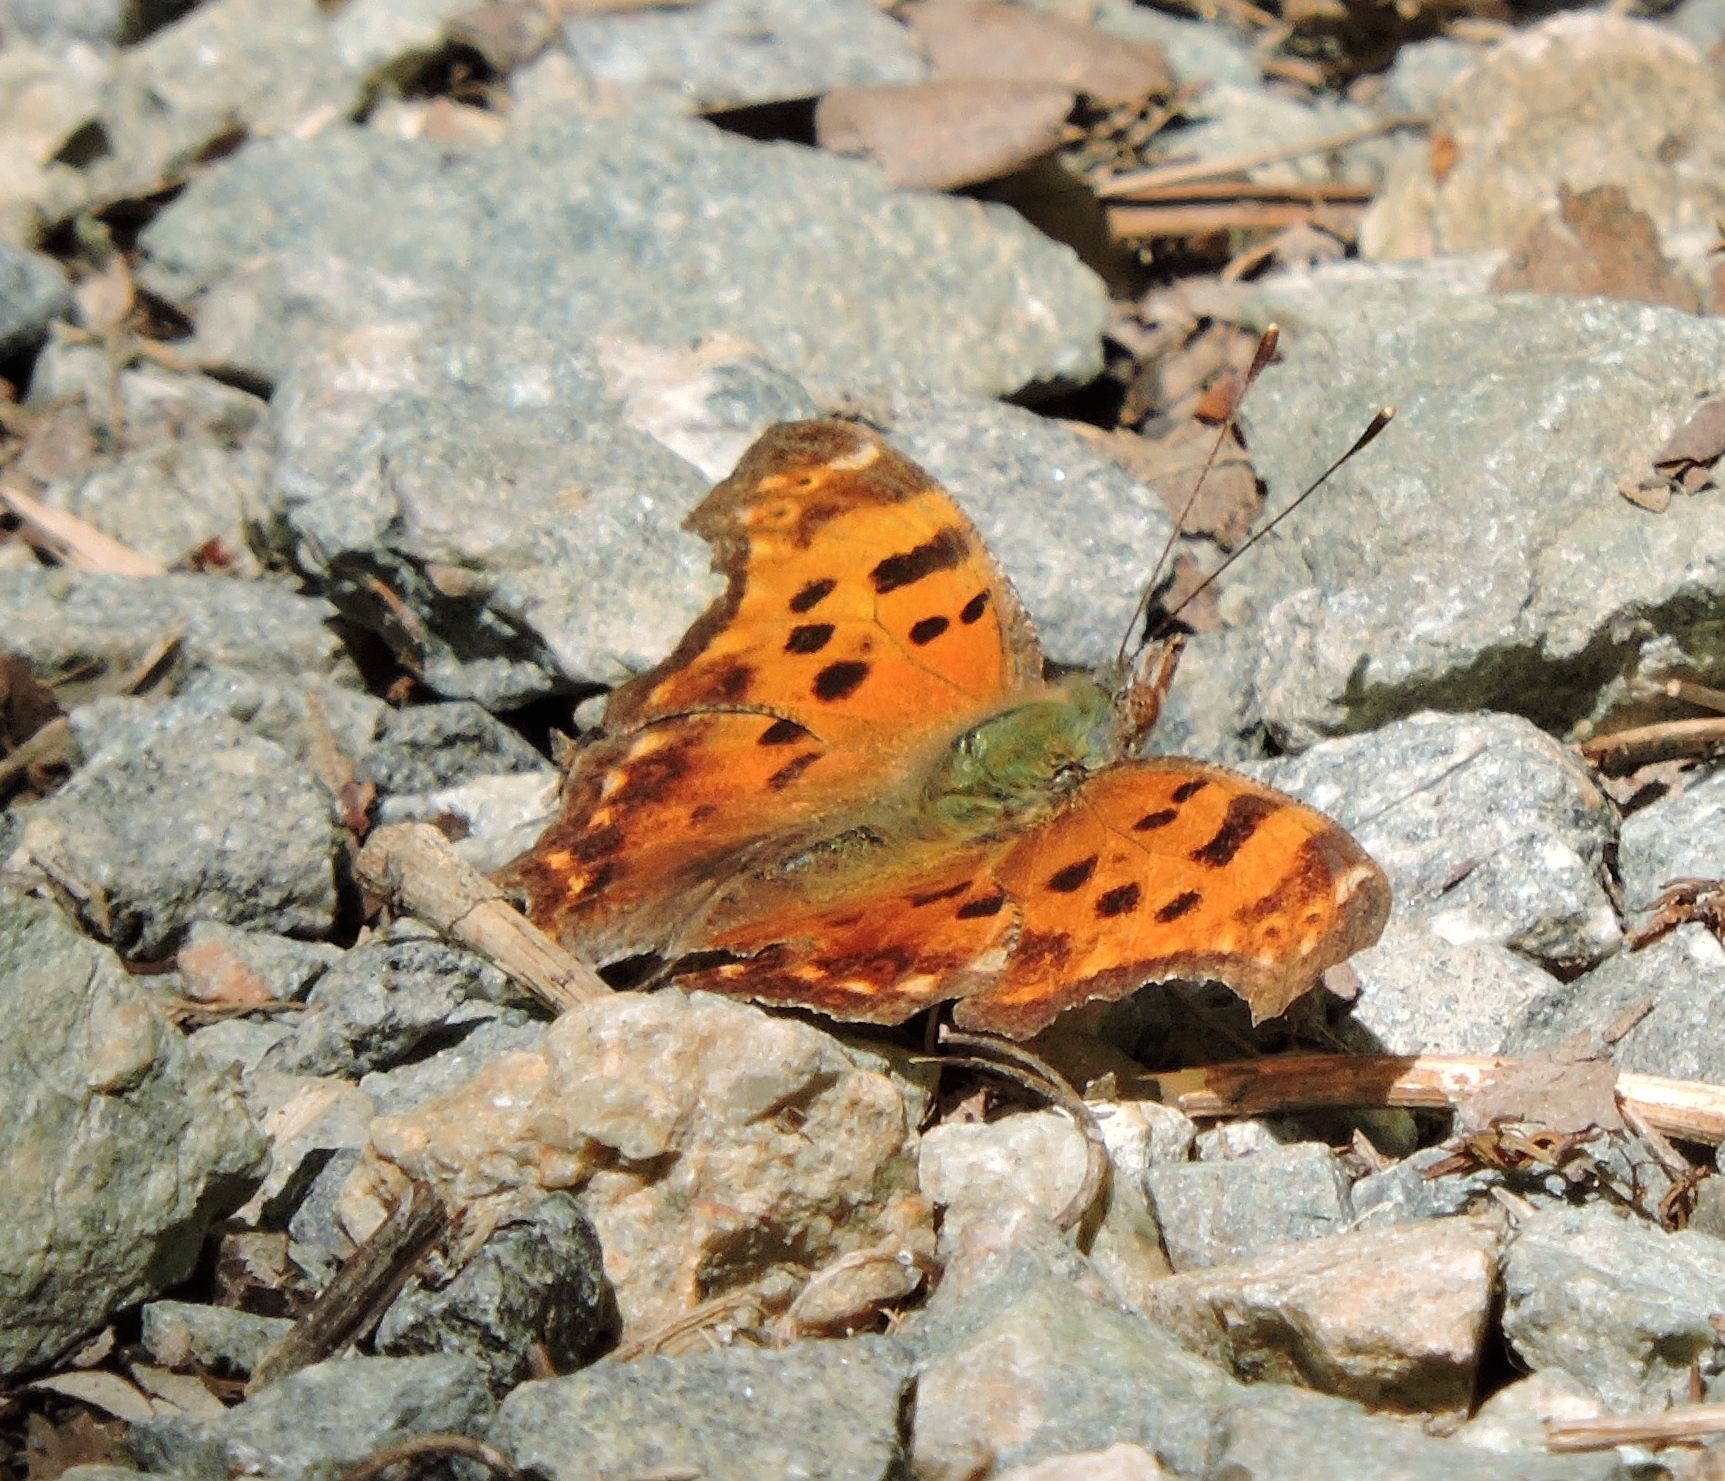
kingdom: Animalia
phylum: Arthropoda
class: Insecta
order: Lepidoptera
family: Nymphalidae
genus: Polygonia
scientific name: Polygonia comma
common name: Eastern comma
